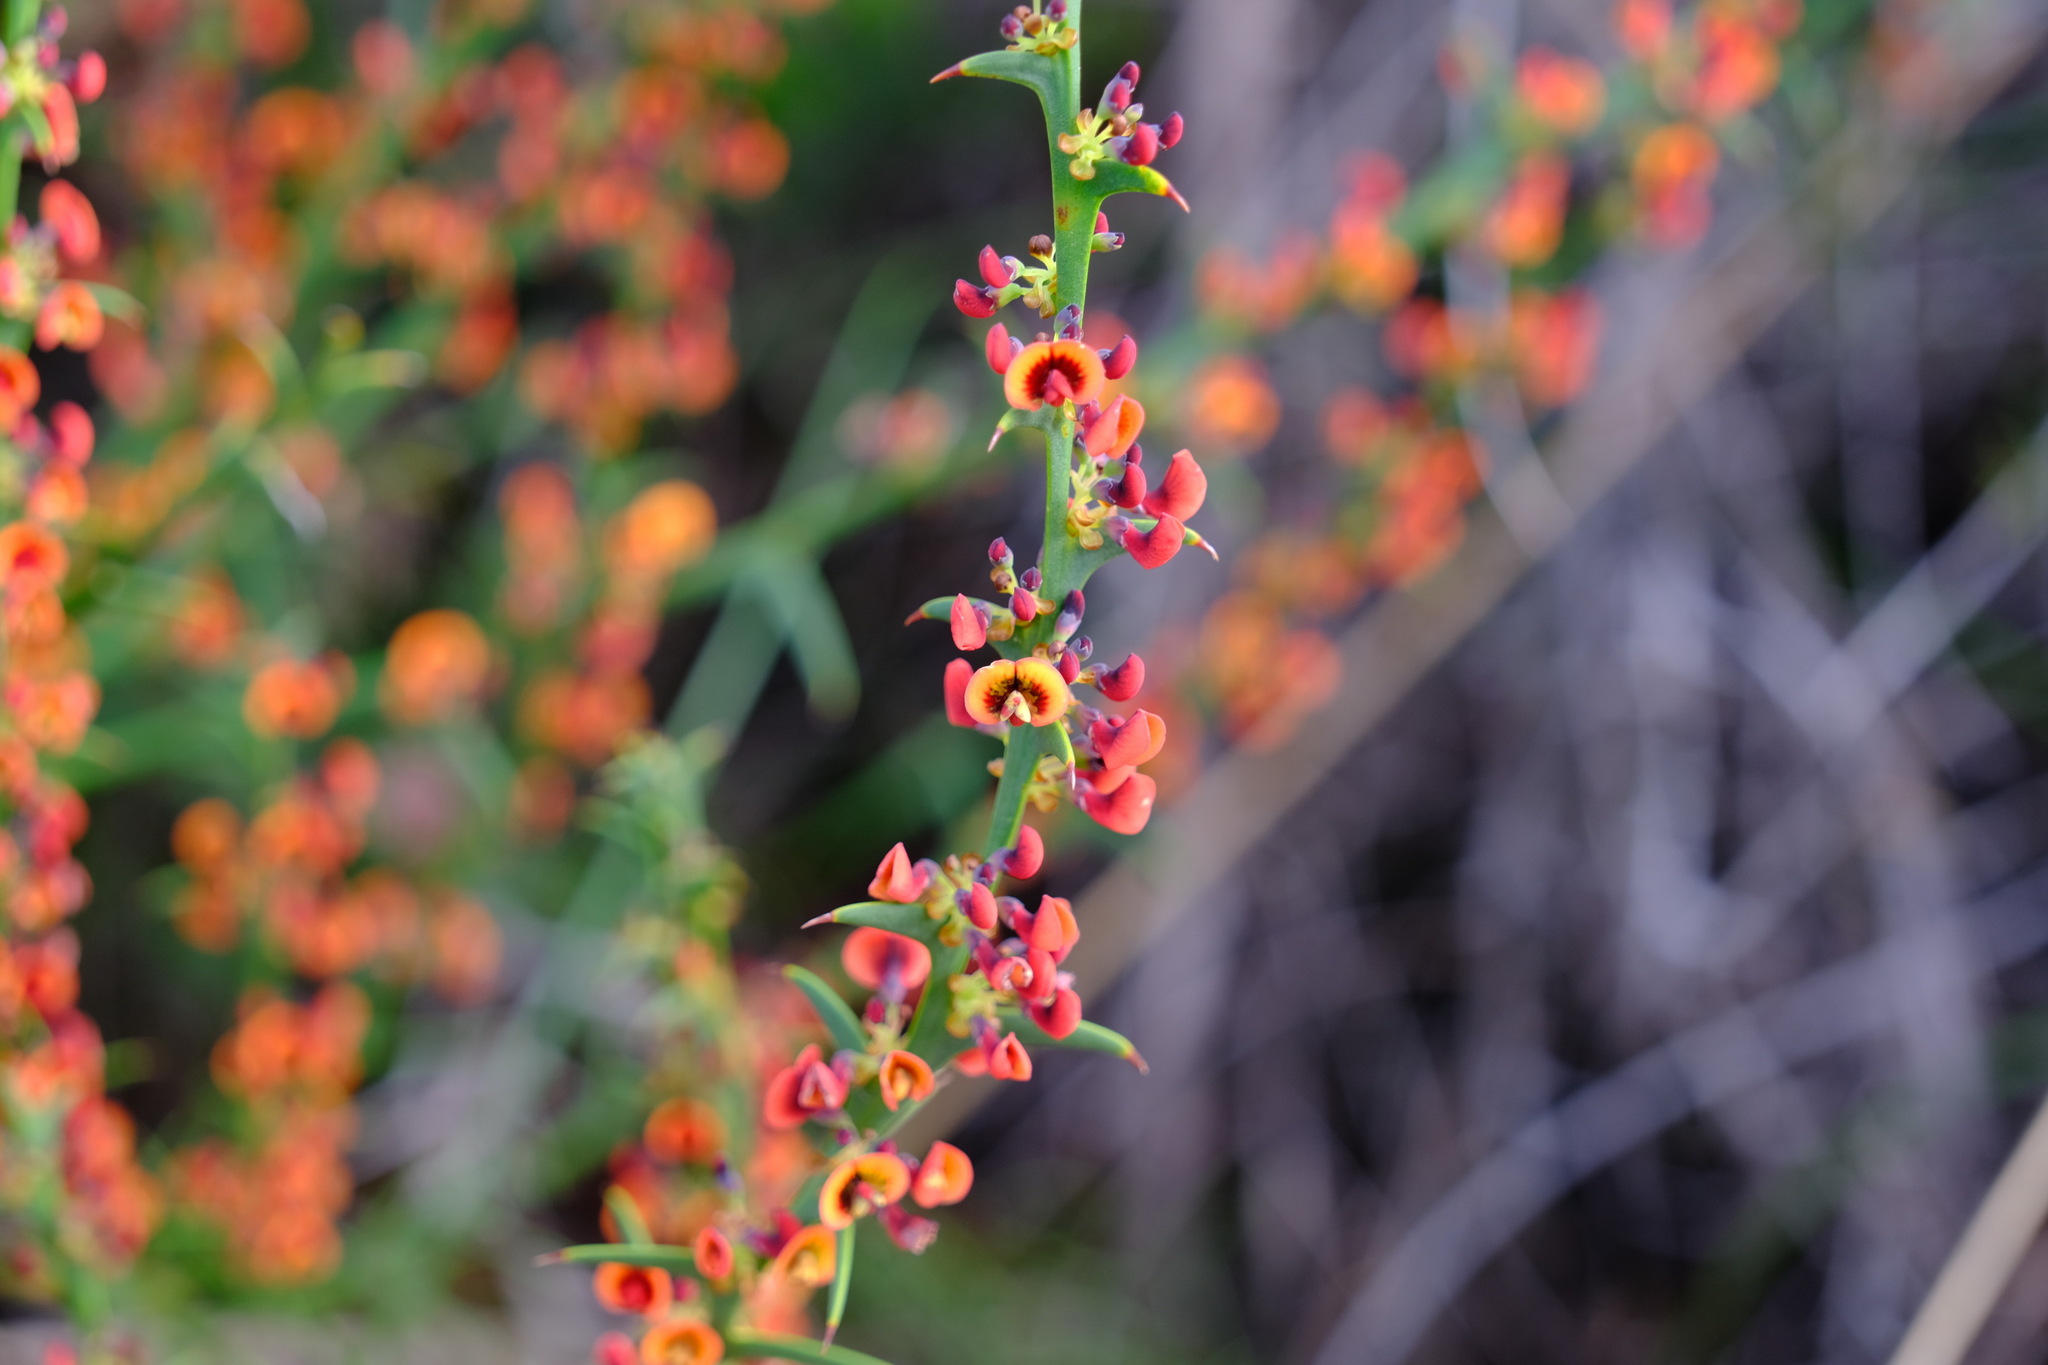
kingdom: Plantae
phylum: Tracheophyta
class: Magnoliopsida
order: Fabales
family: Fabaceae
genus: Daviesia
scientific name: Daviesia decurrens
